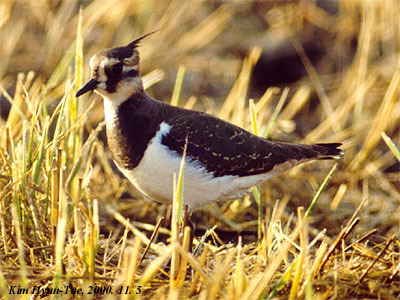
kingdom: Animalia
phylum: Chordata
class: Aves
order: Charadriiformes
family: Charadriidae
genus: Vanellus
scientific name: Vanellus vanellus
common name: Northern lapwing
